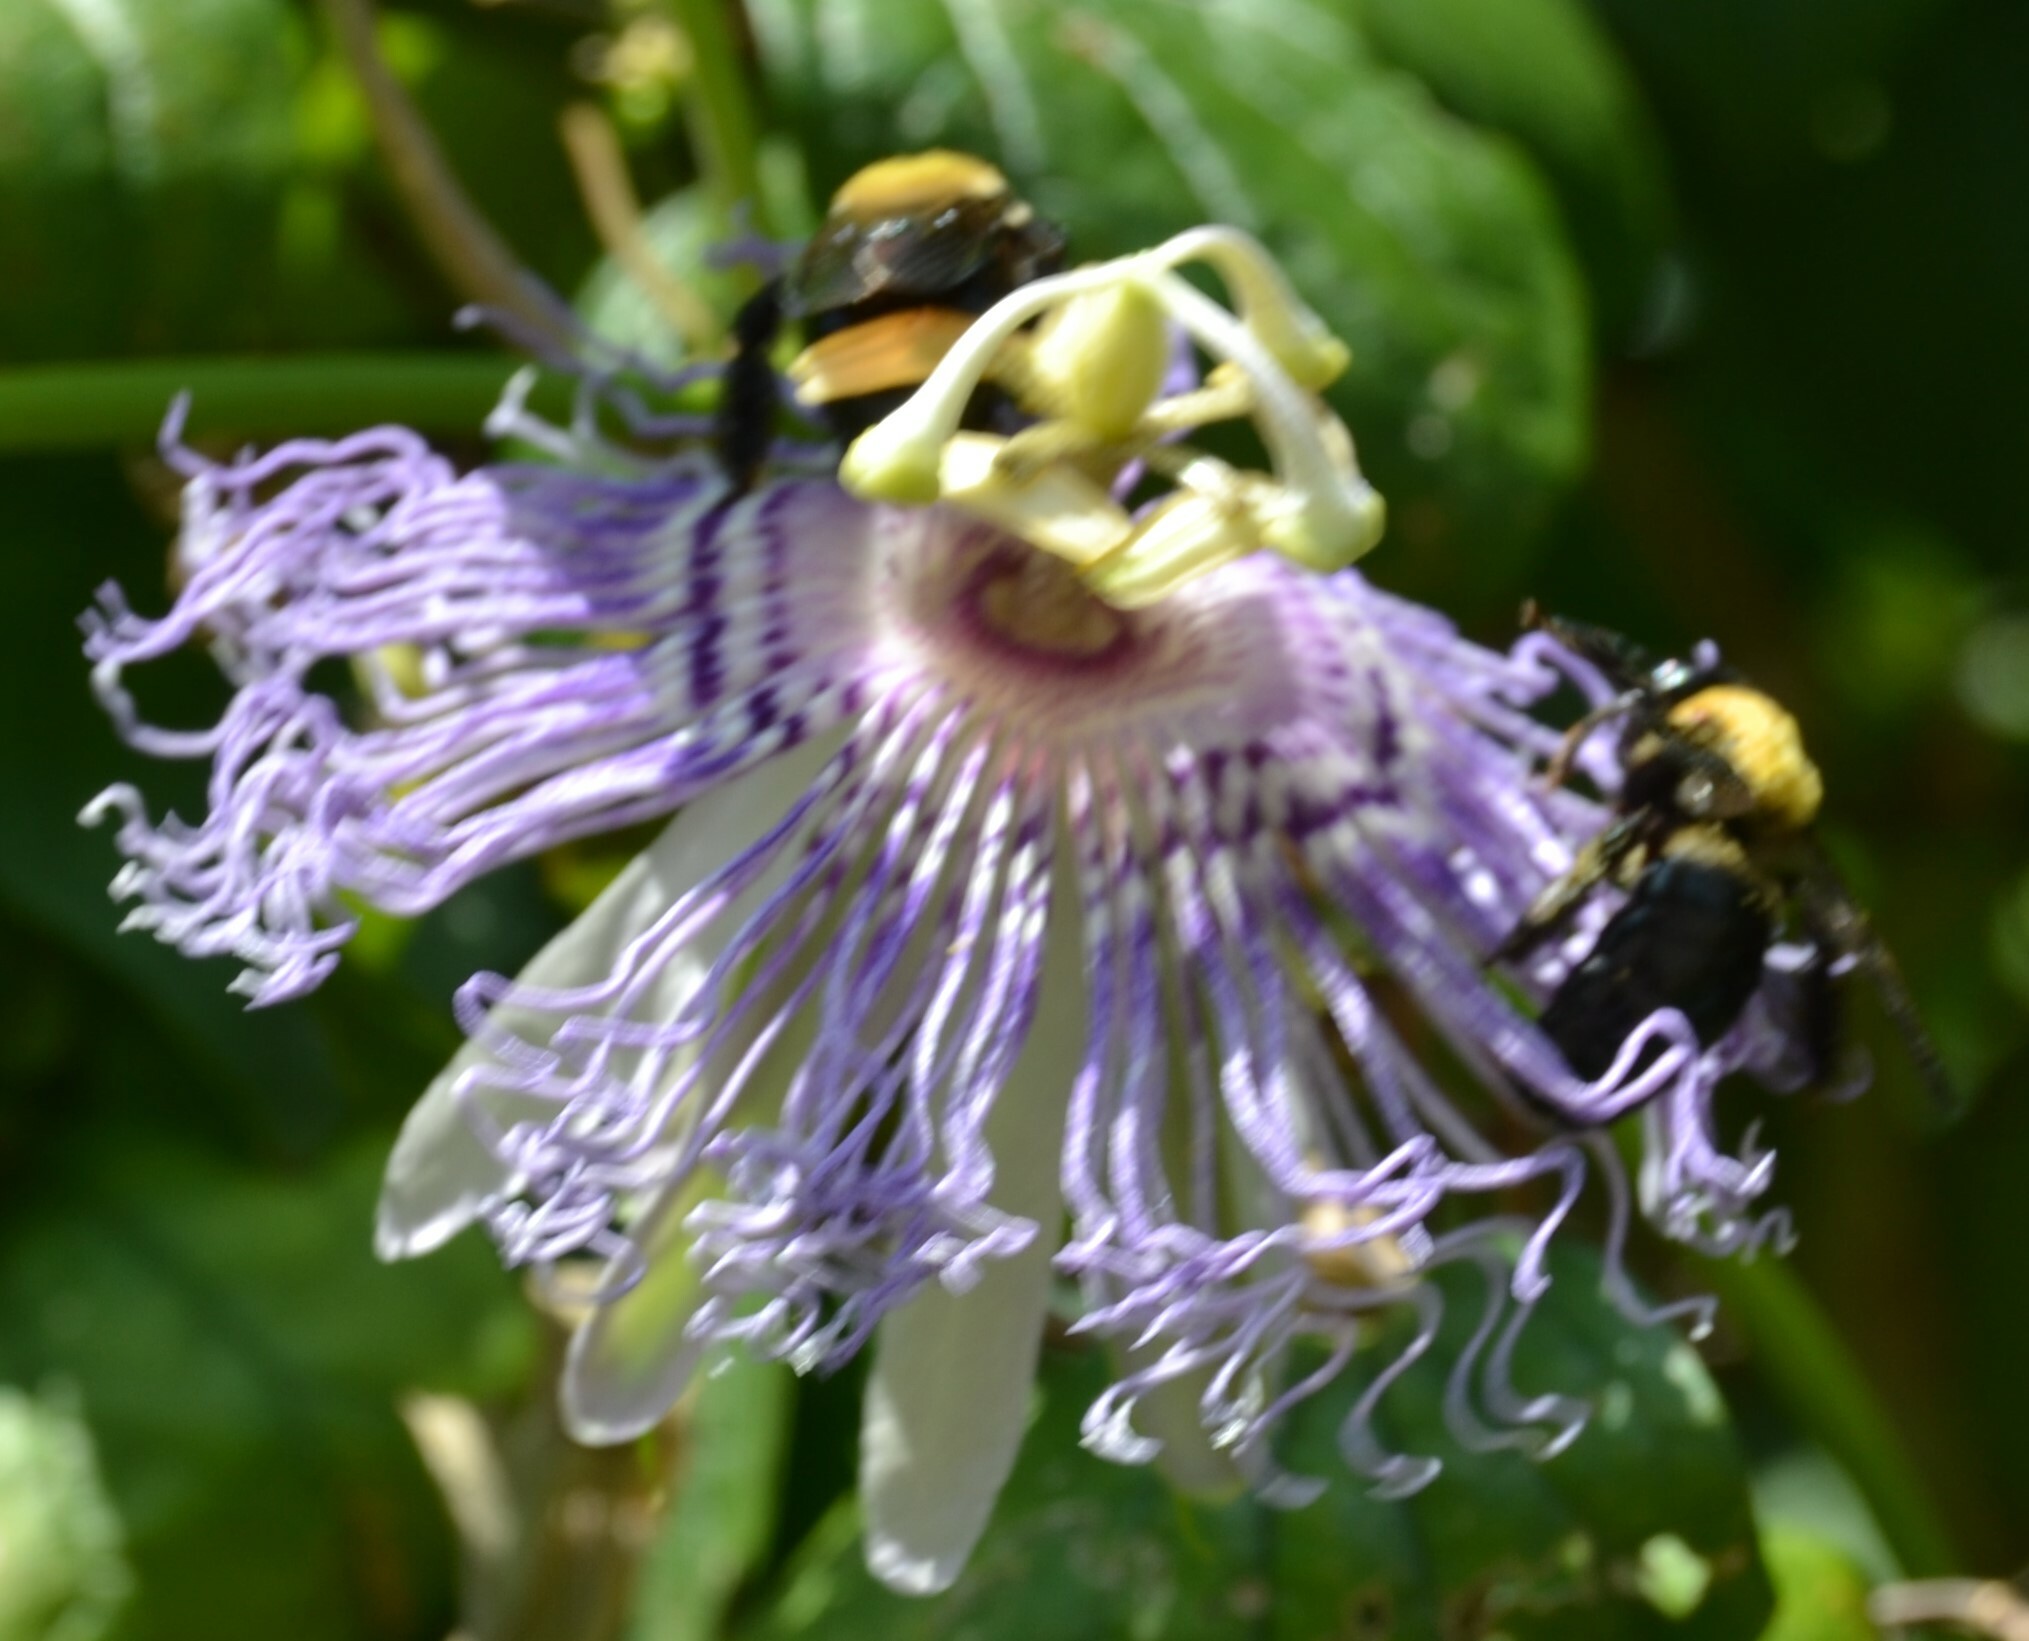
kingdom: Animalia
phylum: Arthropoda
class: Insecta
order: Hymenoptera
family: Apidae
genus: Xylocopa
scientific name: Xylocopa virginica
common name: Carpenter bee
